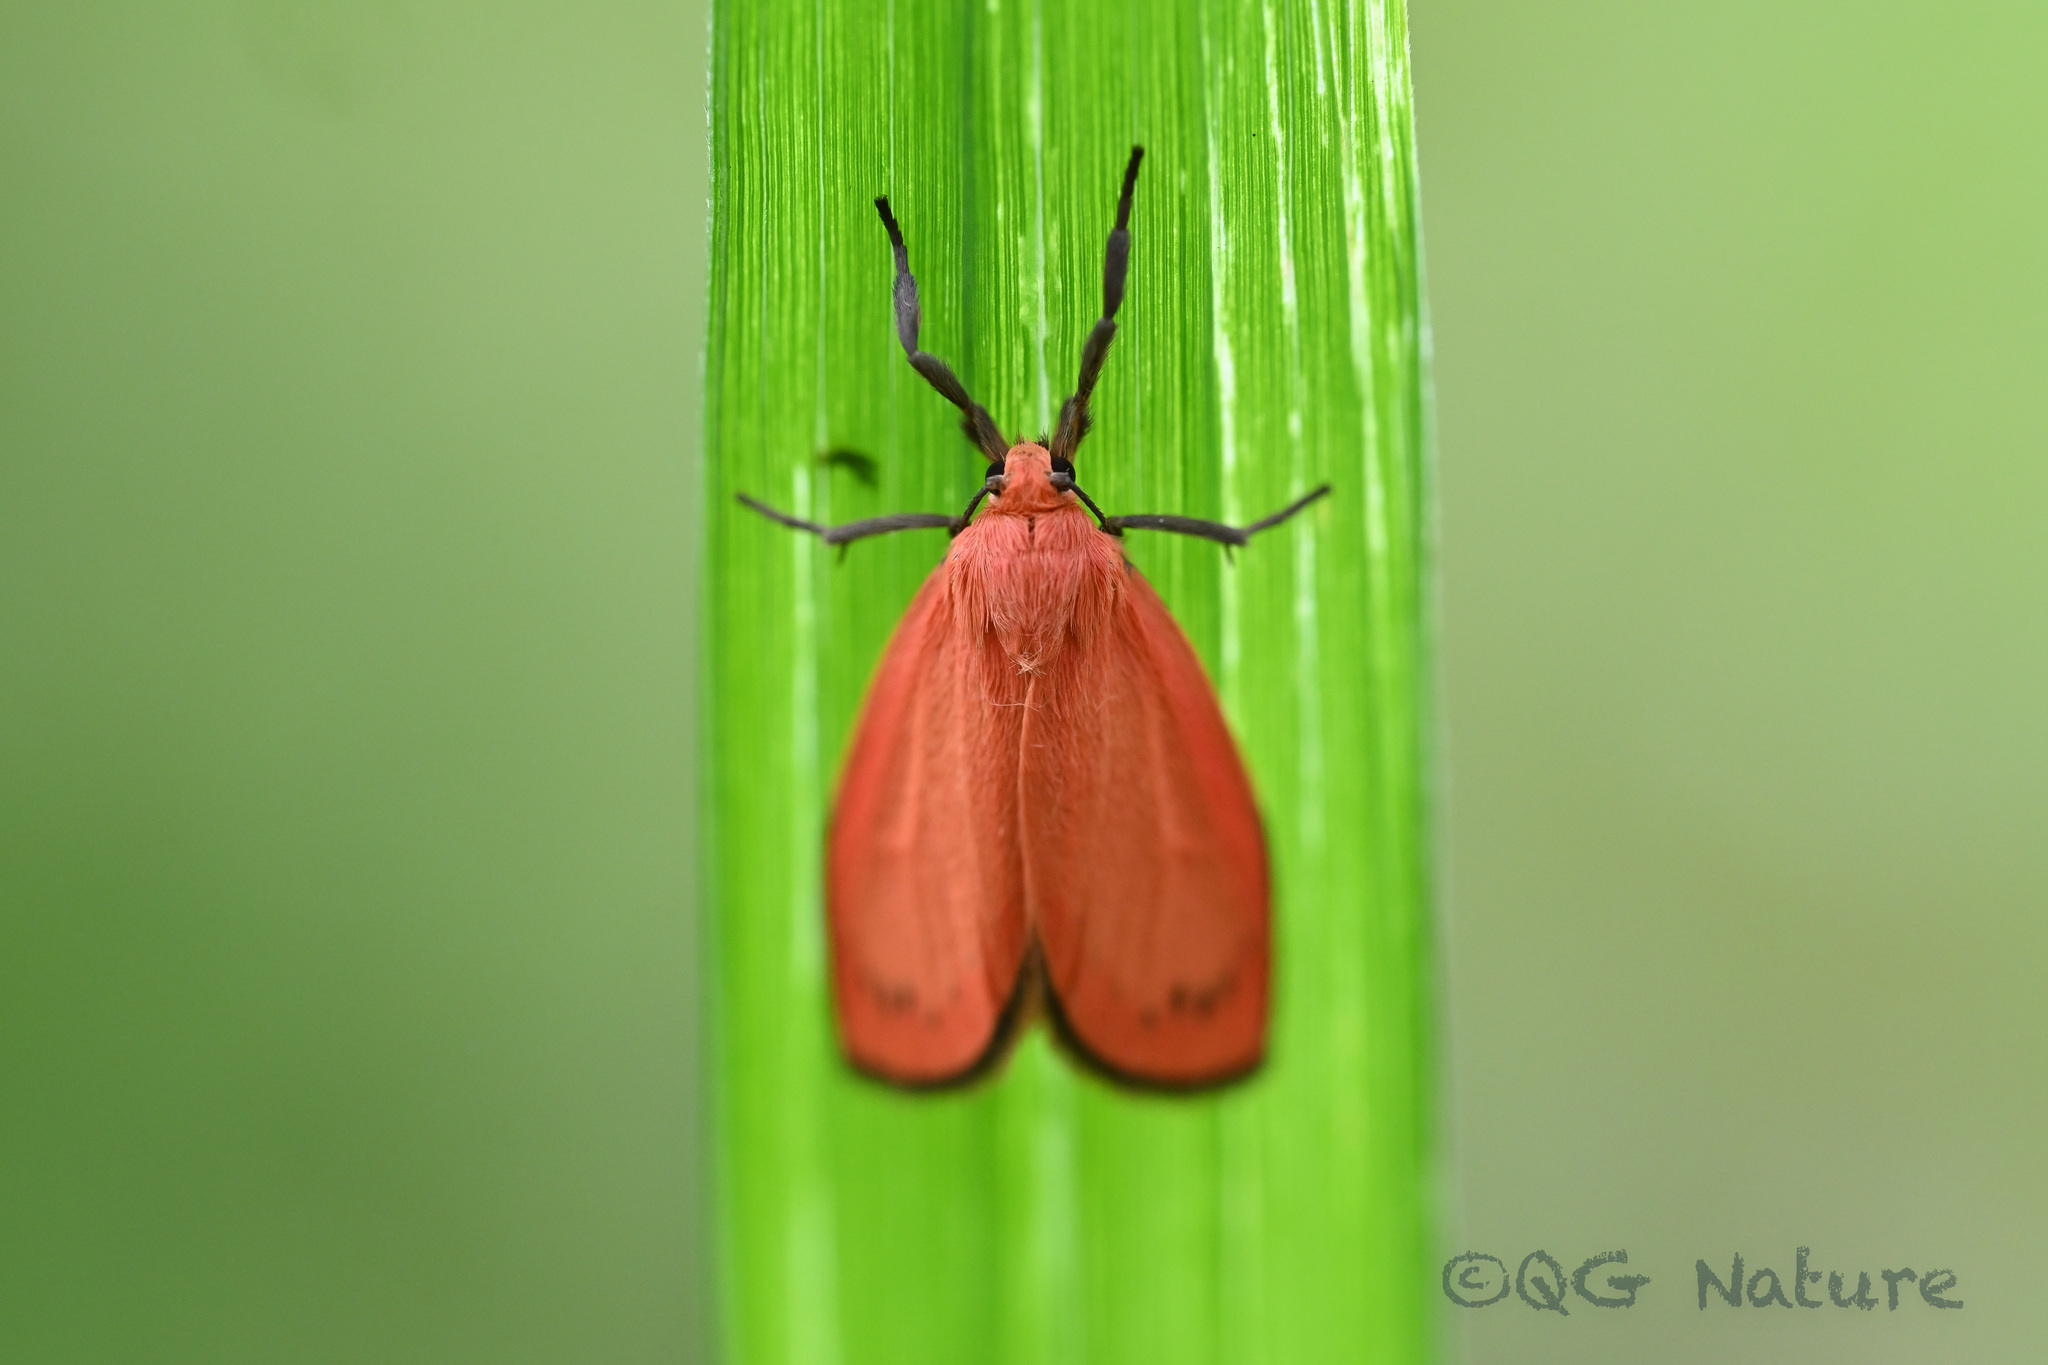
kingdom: Animalia
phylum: Arthropoda
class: Insecta
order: Lepidoptera
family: Erebidae
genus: Sesapa
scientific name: Sesapa sanguinea
